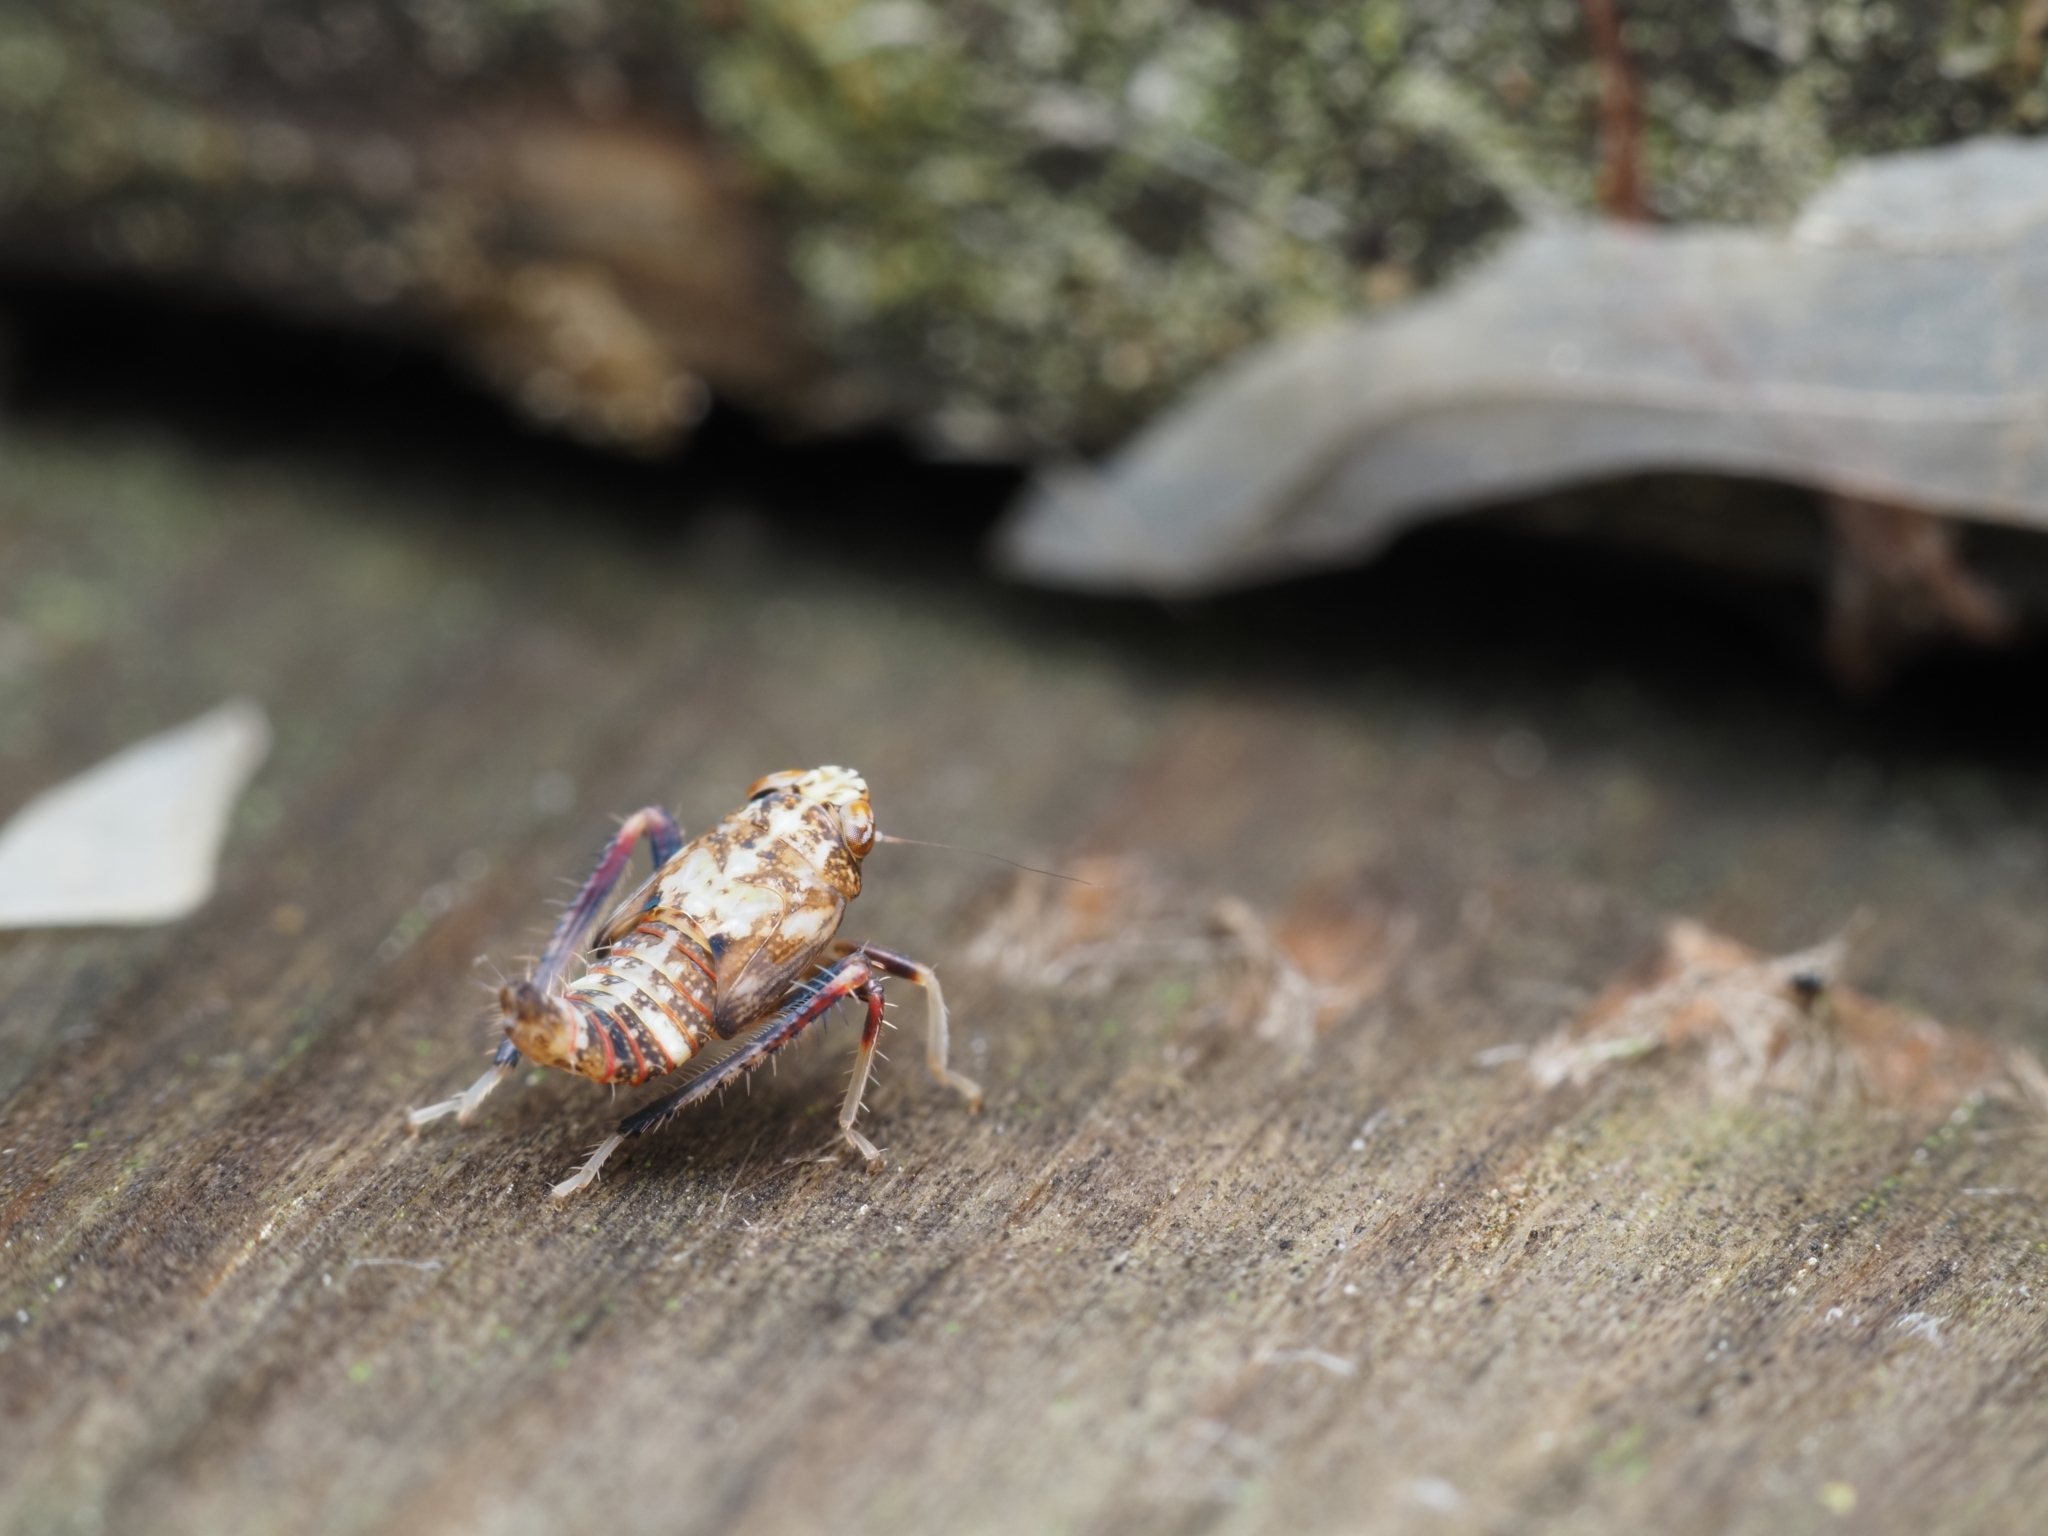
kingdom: Animalia
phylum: Arthropoda
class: Insecta
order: Hemiptera
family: Cicadellidae
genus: Orientus
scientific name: Orientus ishidae
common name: Japanese leafhopper
